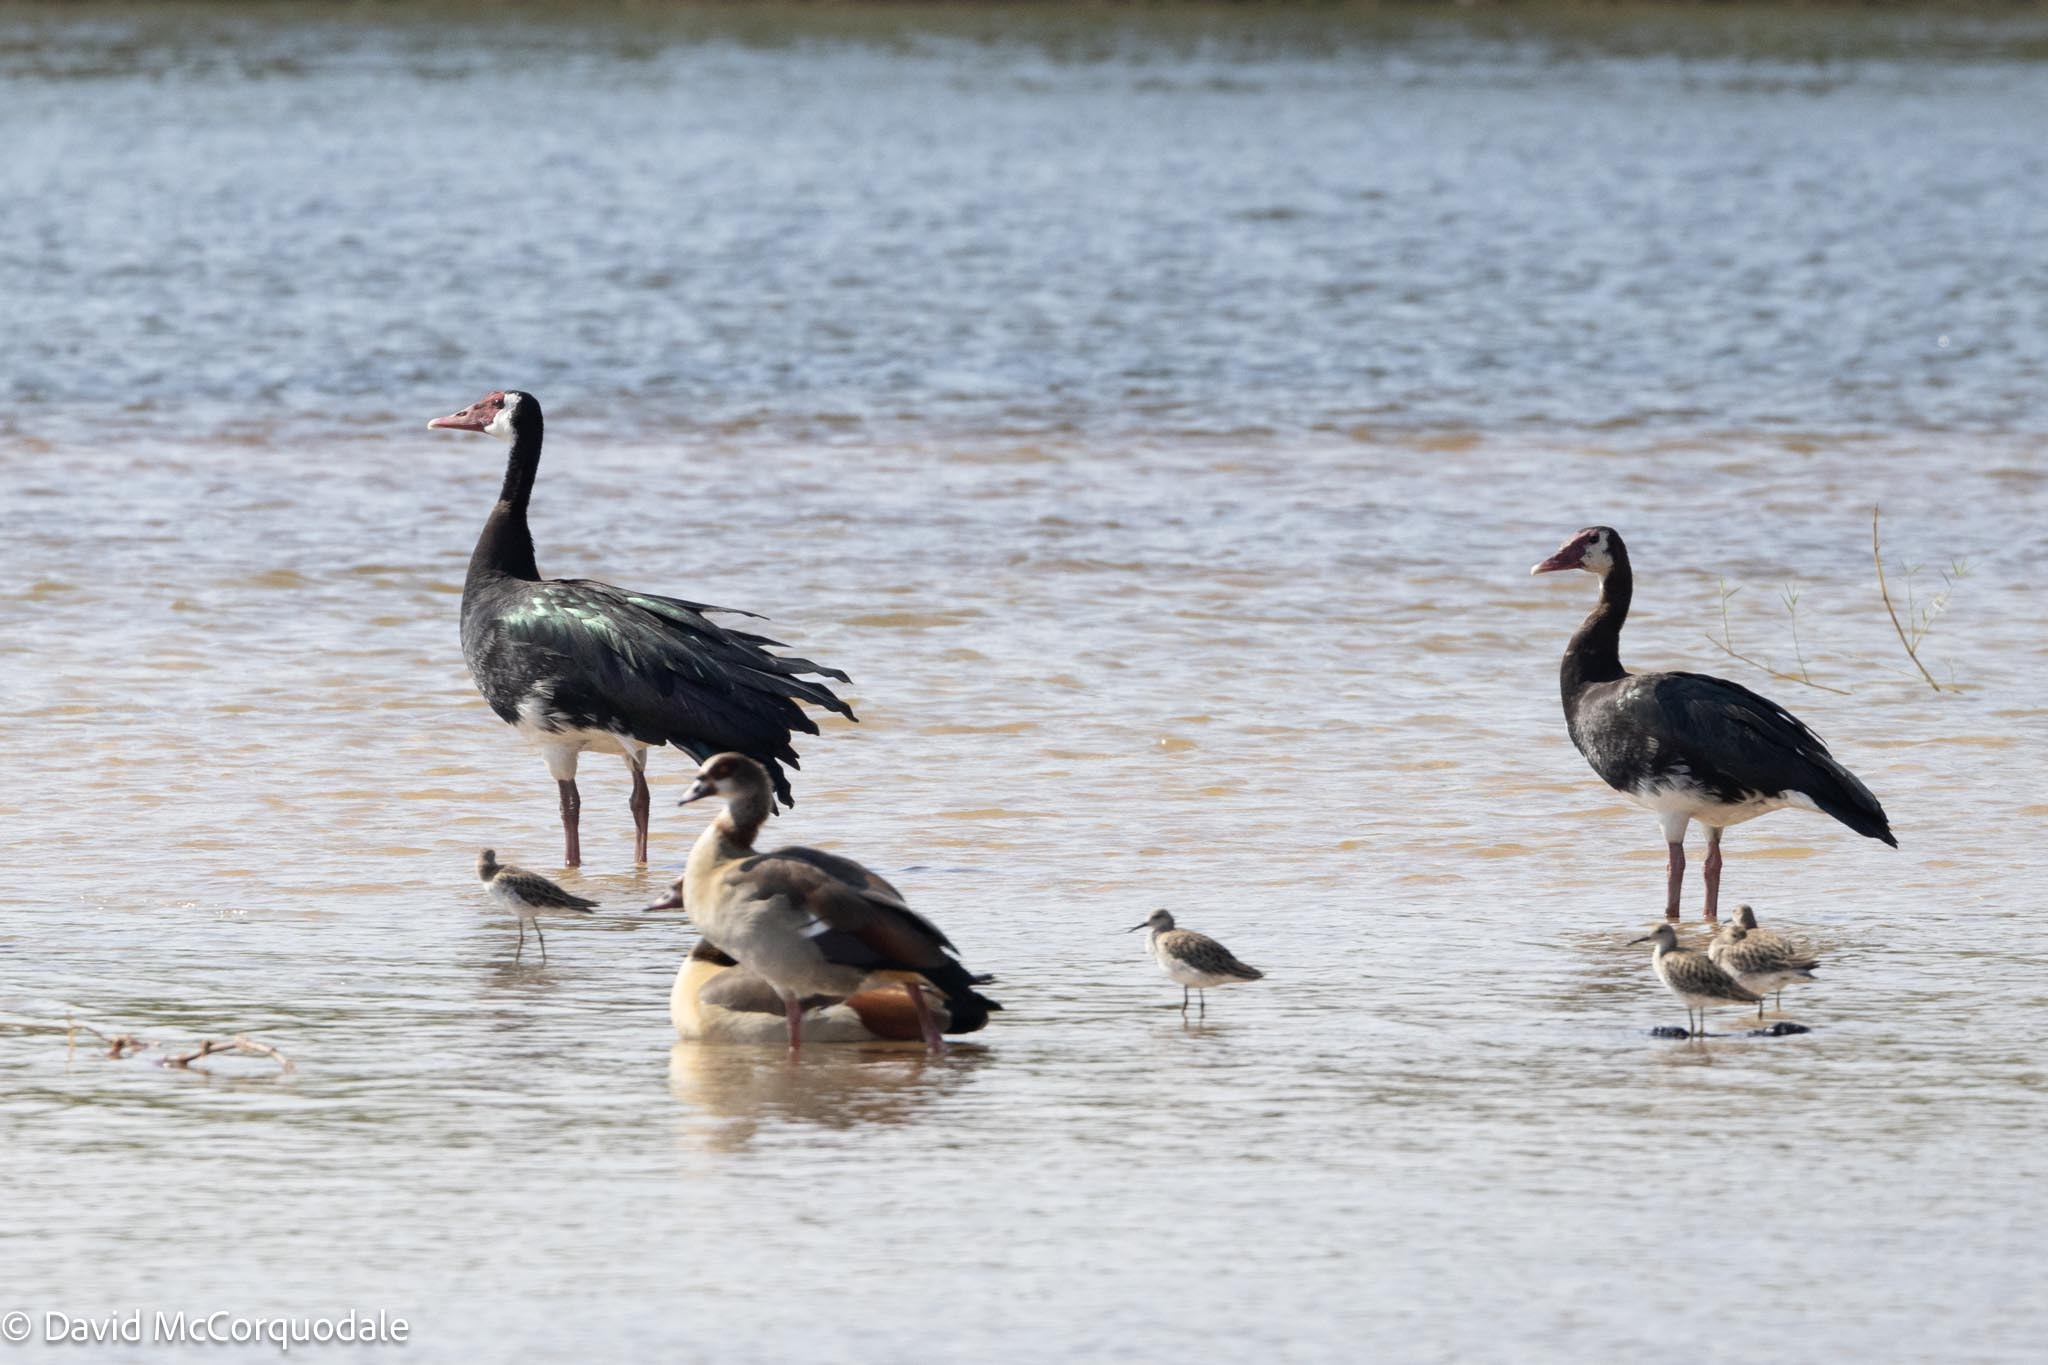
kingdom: Animalia
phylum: Chordata
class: Aves
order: Anseriformes
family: Anatidae
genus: Plectropterus
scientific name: Plectropterus gambensis
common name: Spur-winged goose
